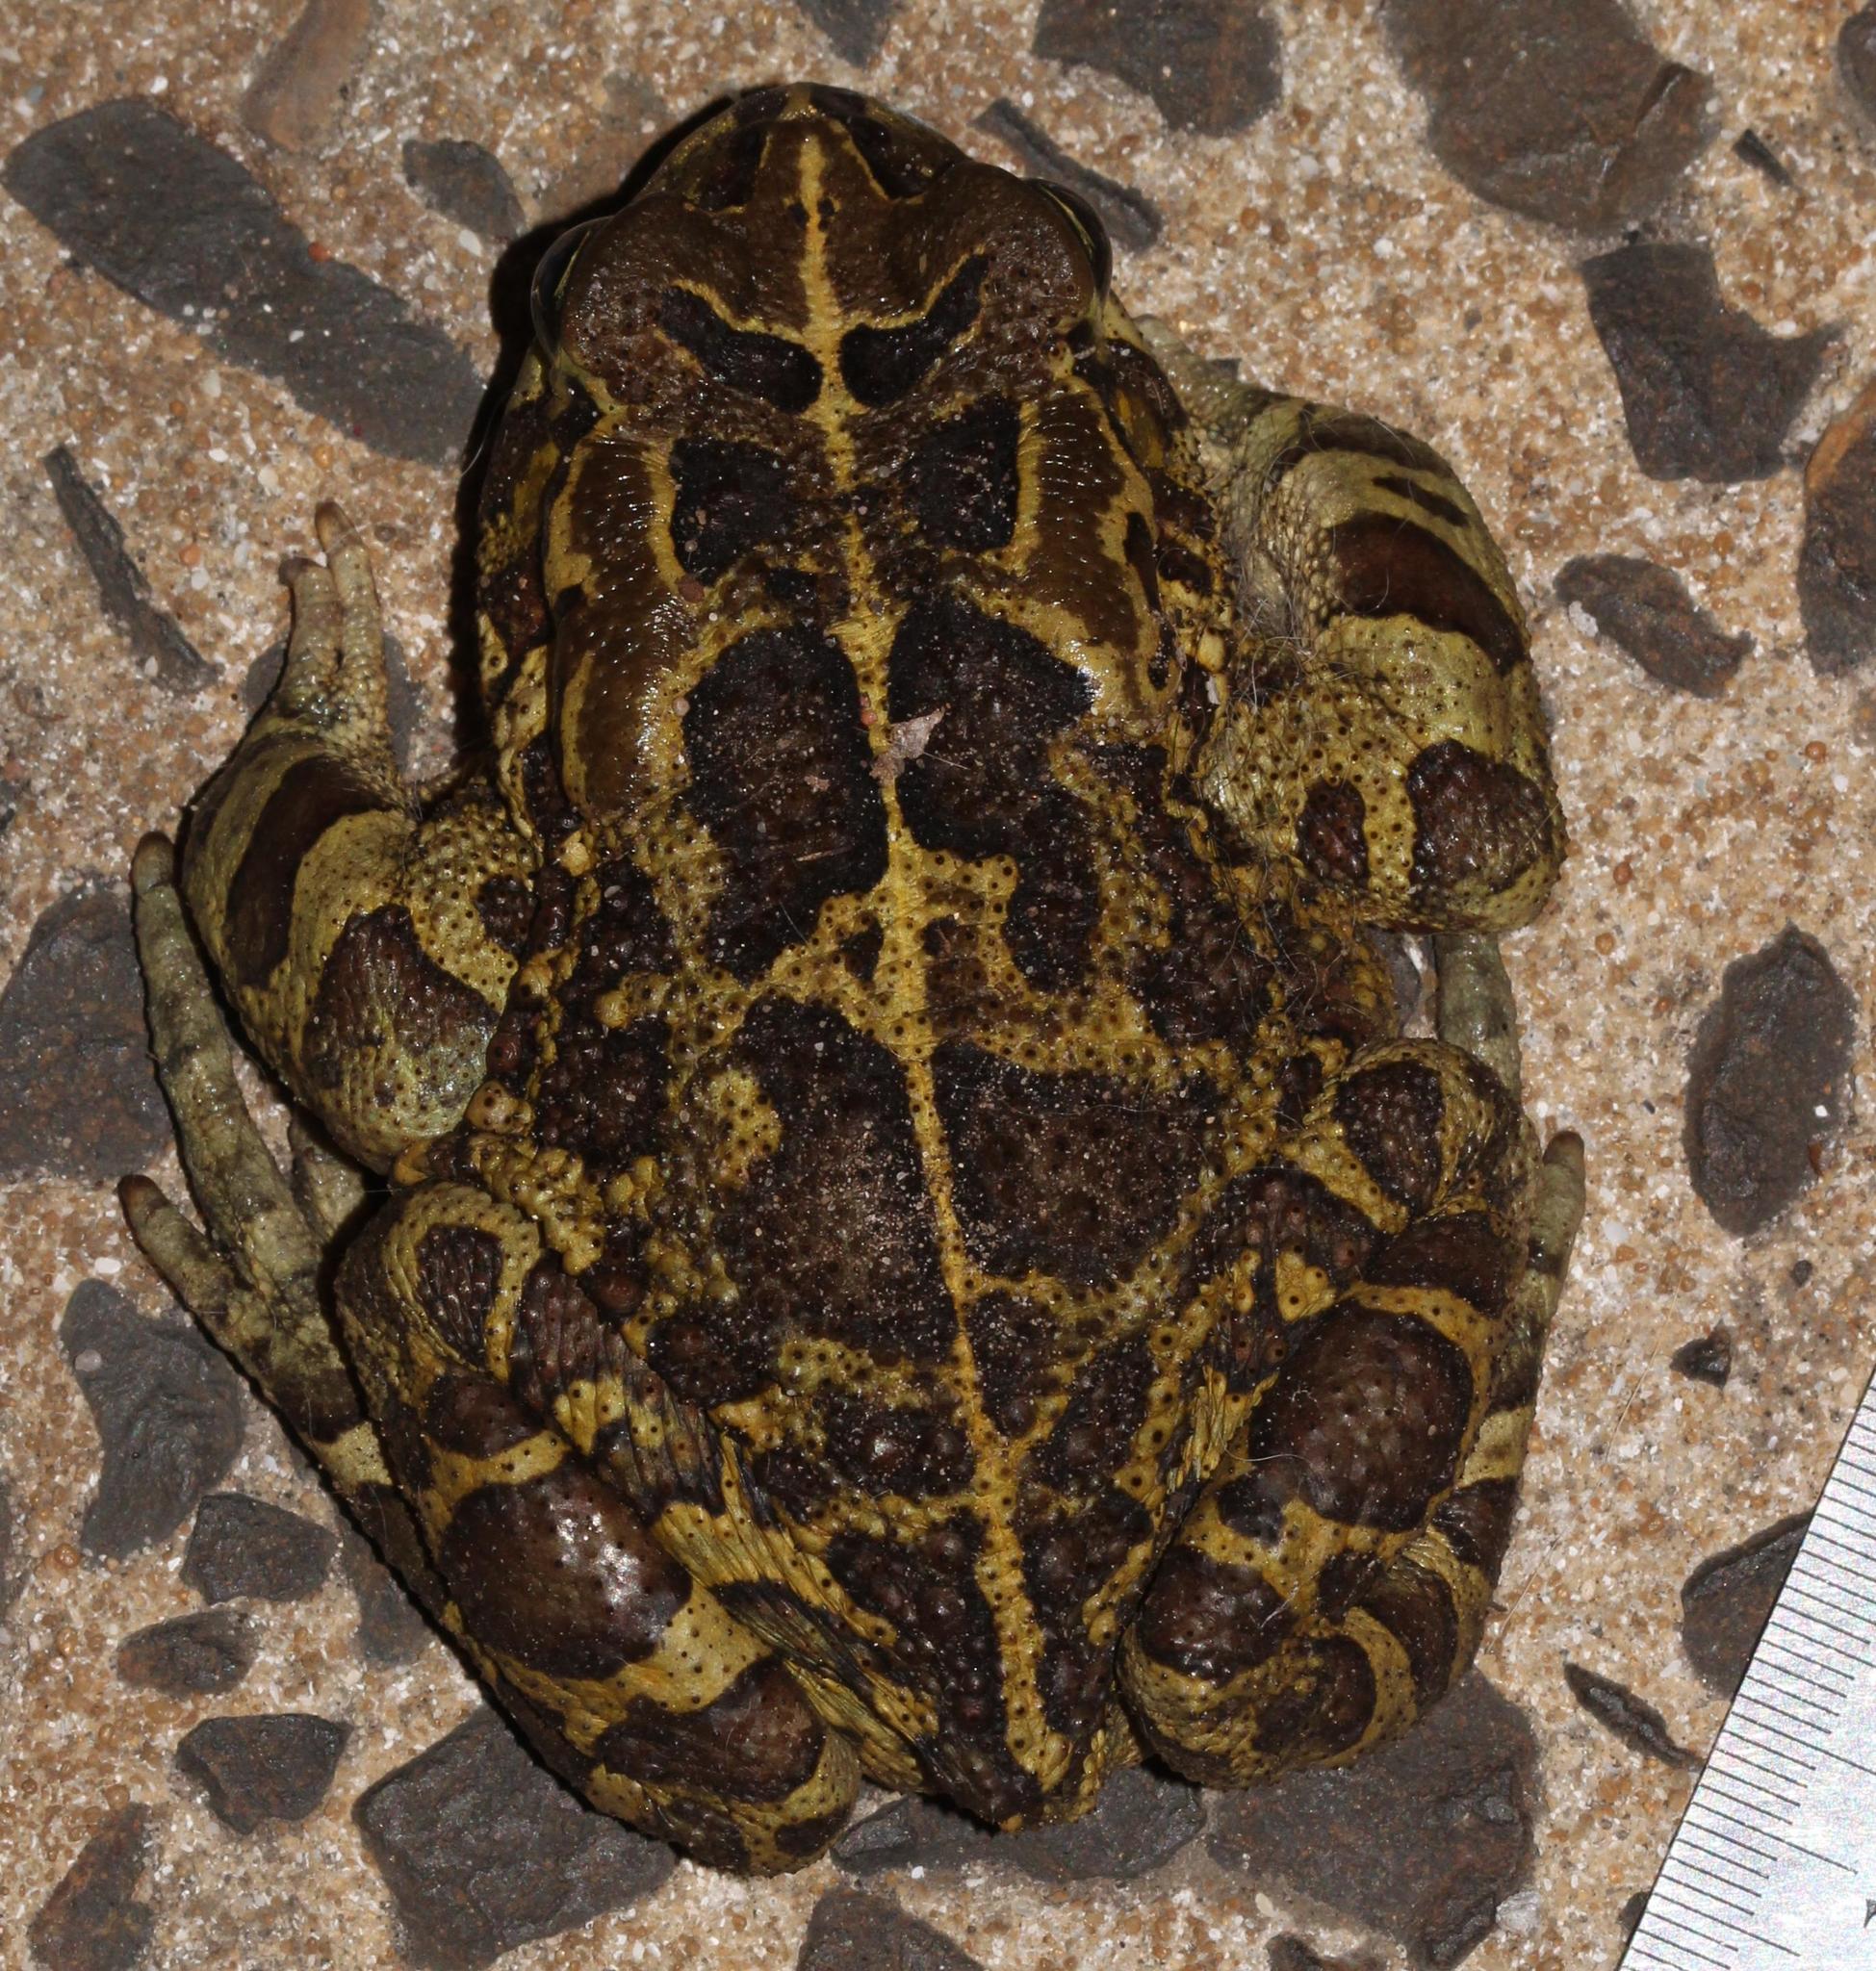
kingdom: Animalia
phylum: Chordata
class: Amphibia
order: Anura
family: Bufonidae
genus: Sclerophrys
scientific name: Sclerophrys pantherina
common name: Panther toad
